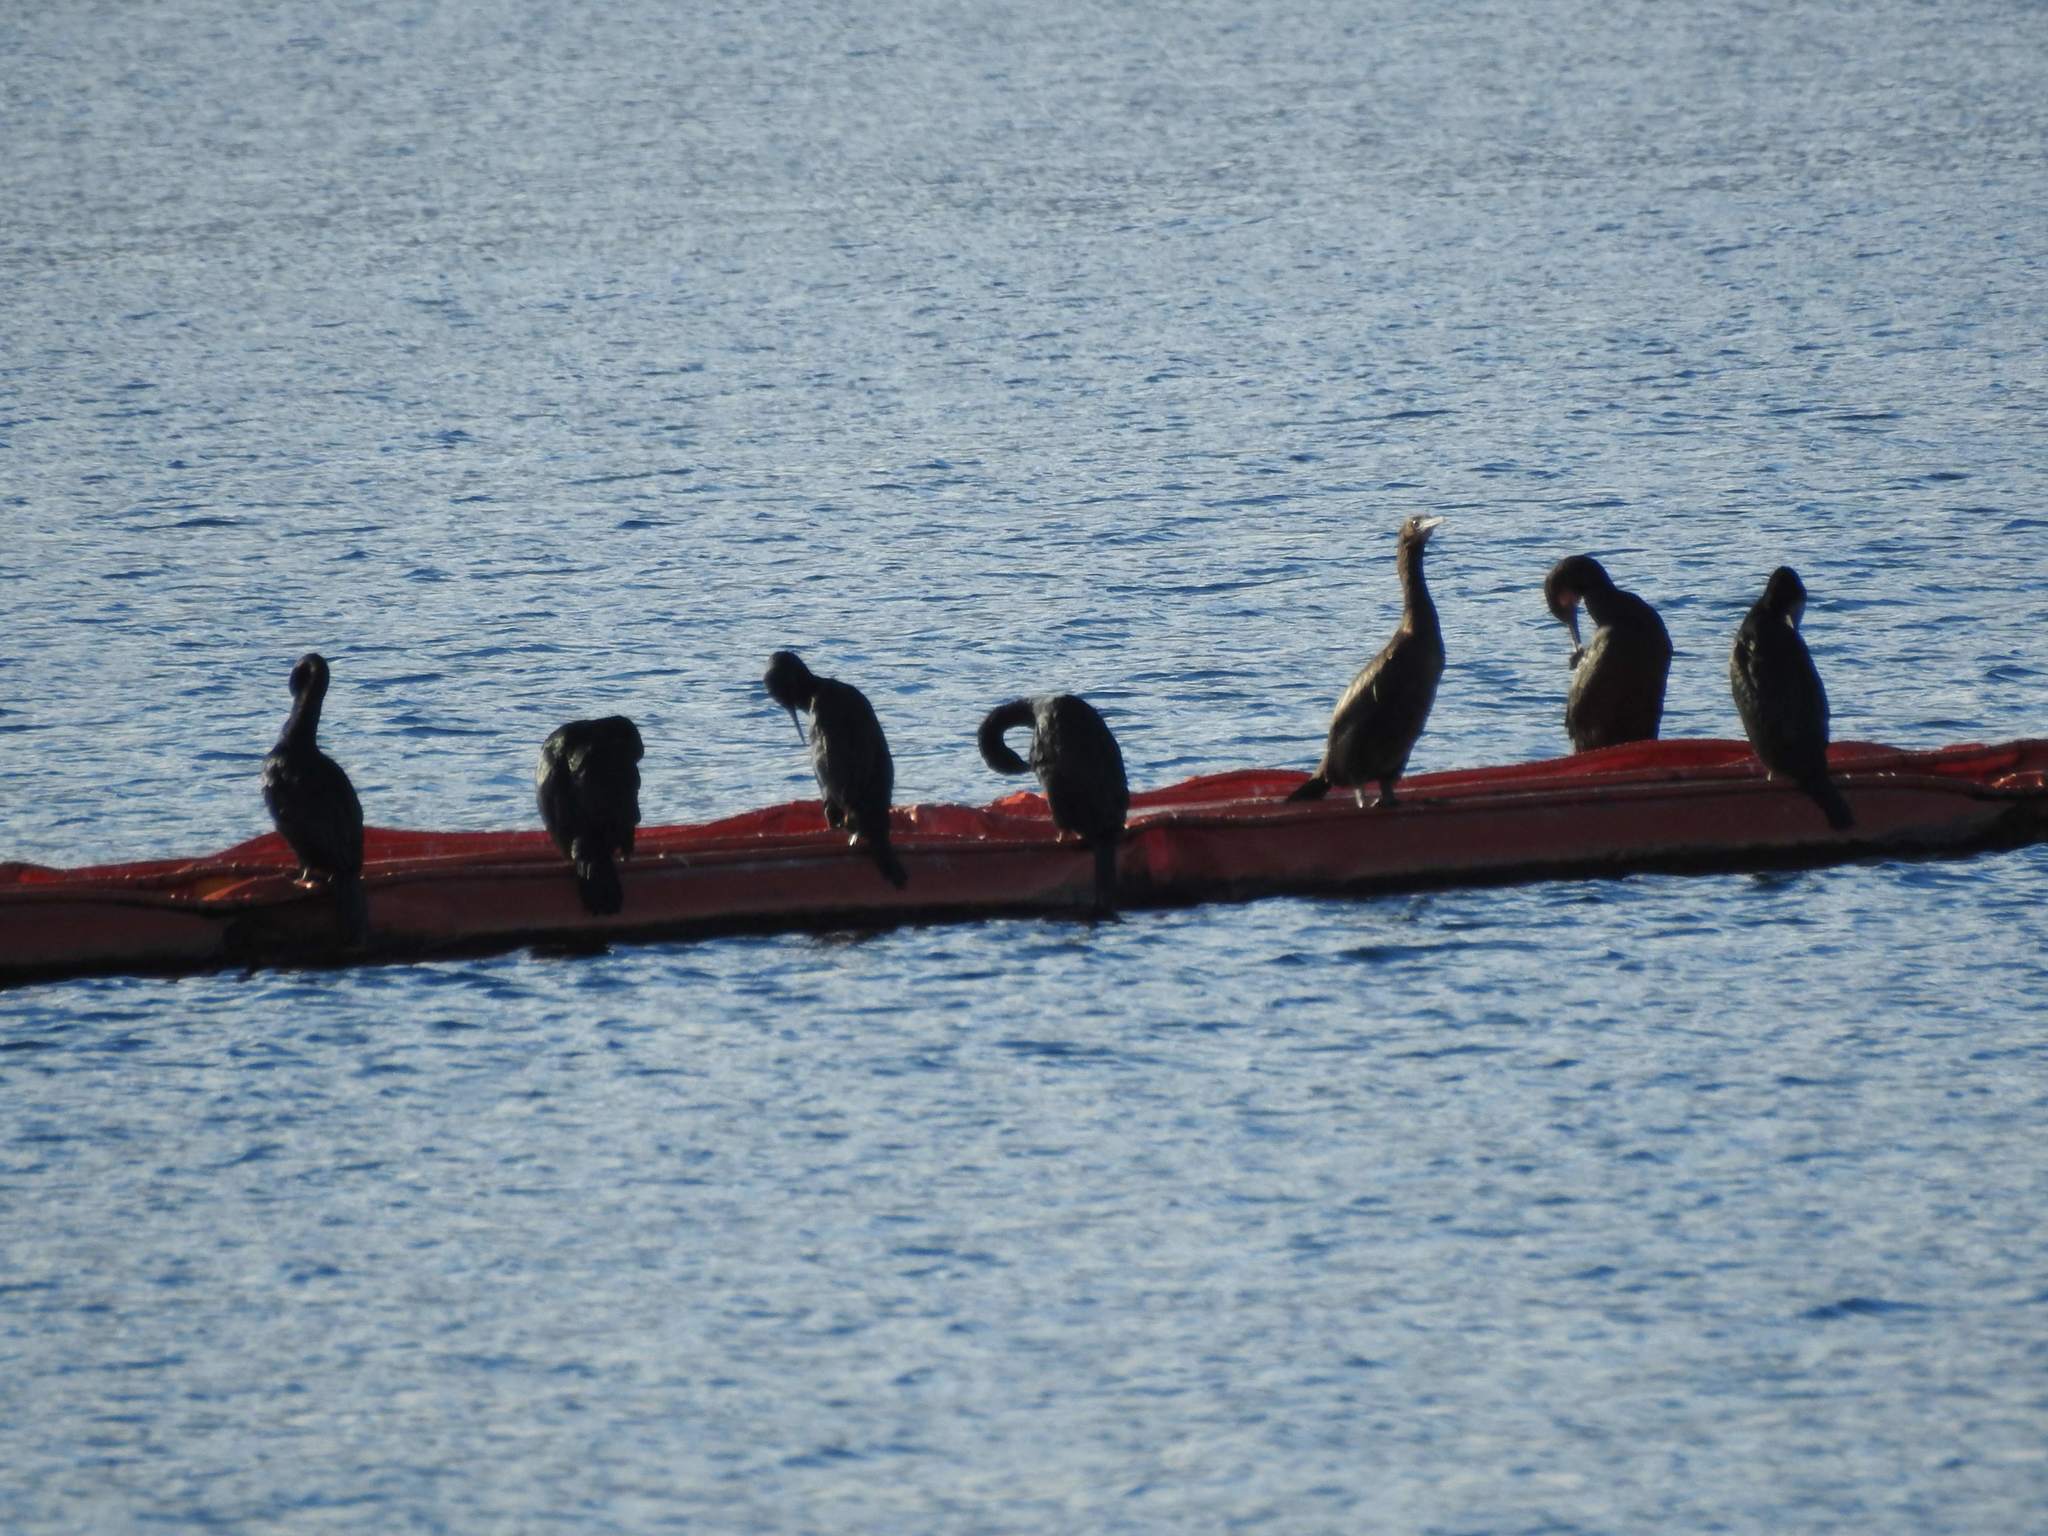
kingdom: Animalia
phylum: Chordata
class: Aves
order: Suliformes
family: Phalacrocoracidae
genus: Phalacrocorax
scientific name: Phalacrocorax pelagicus
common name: Pelagic cormorant
